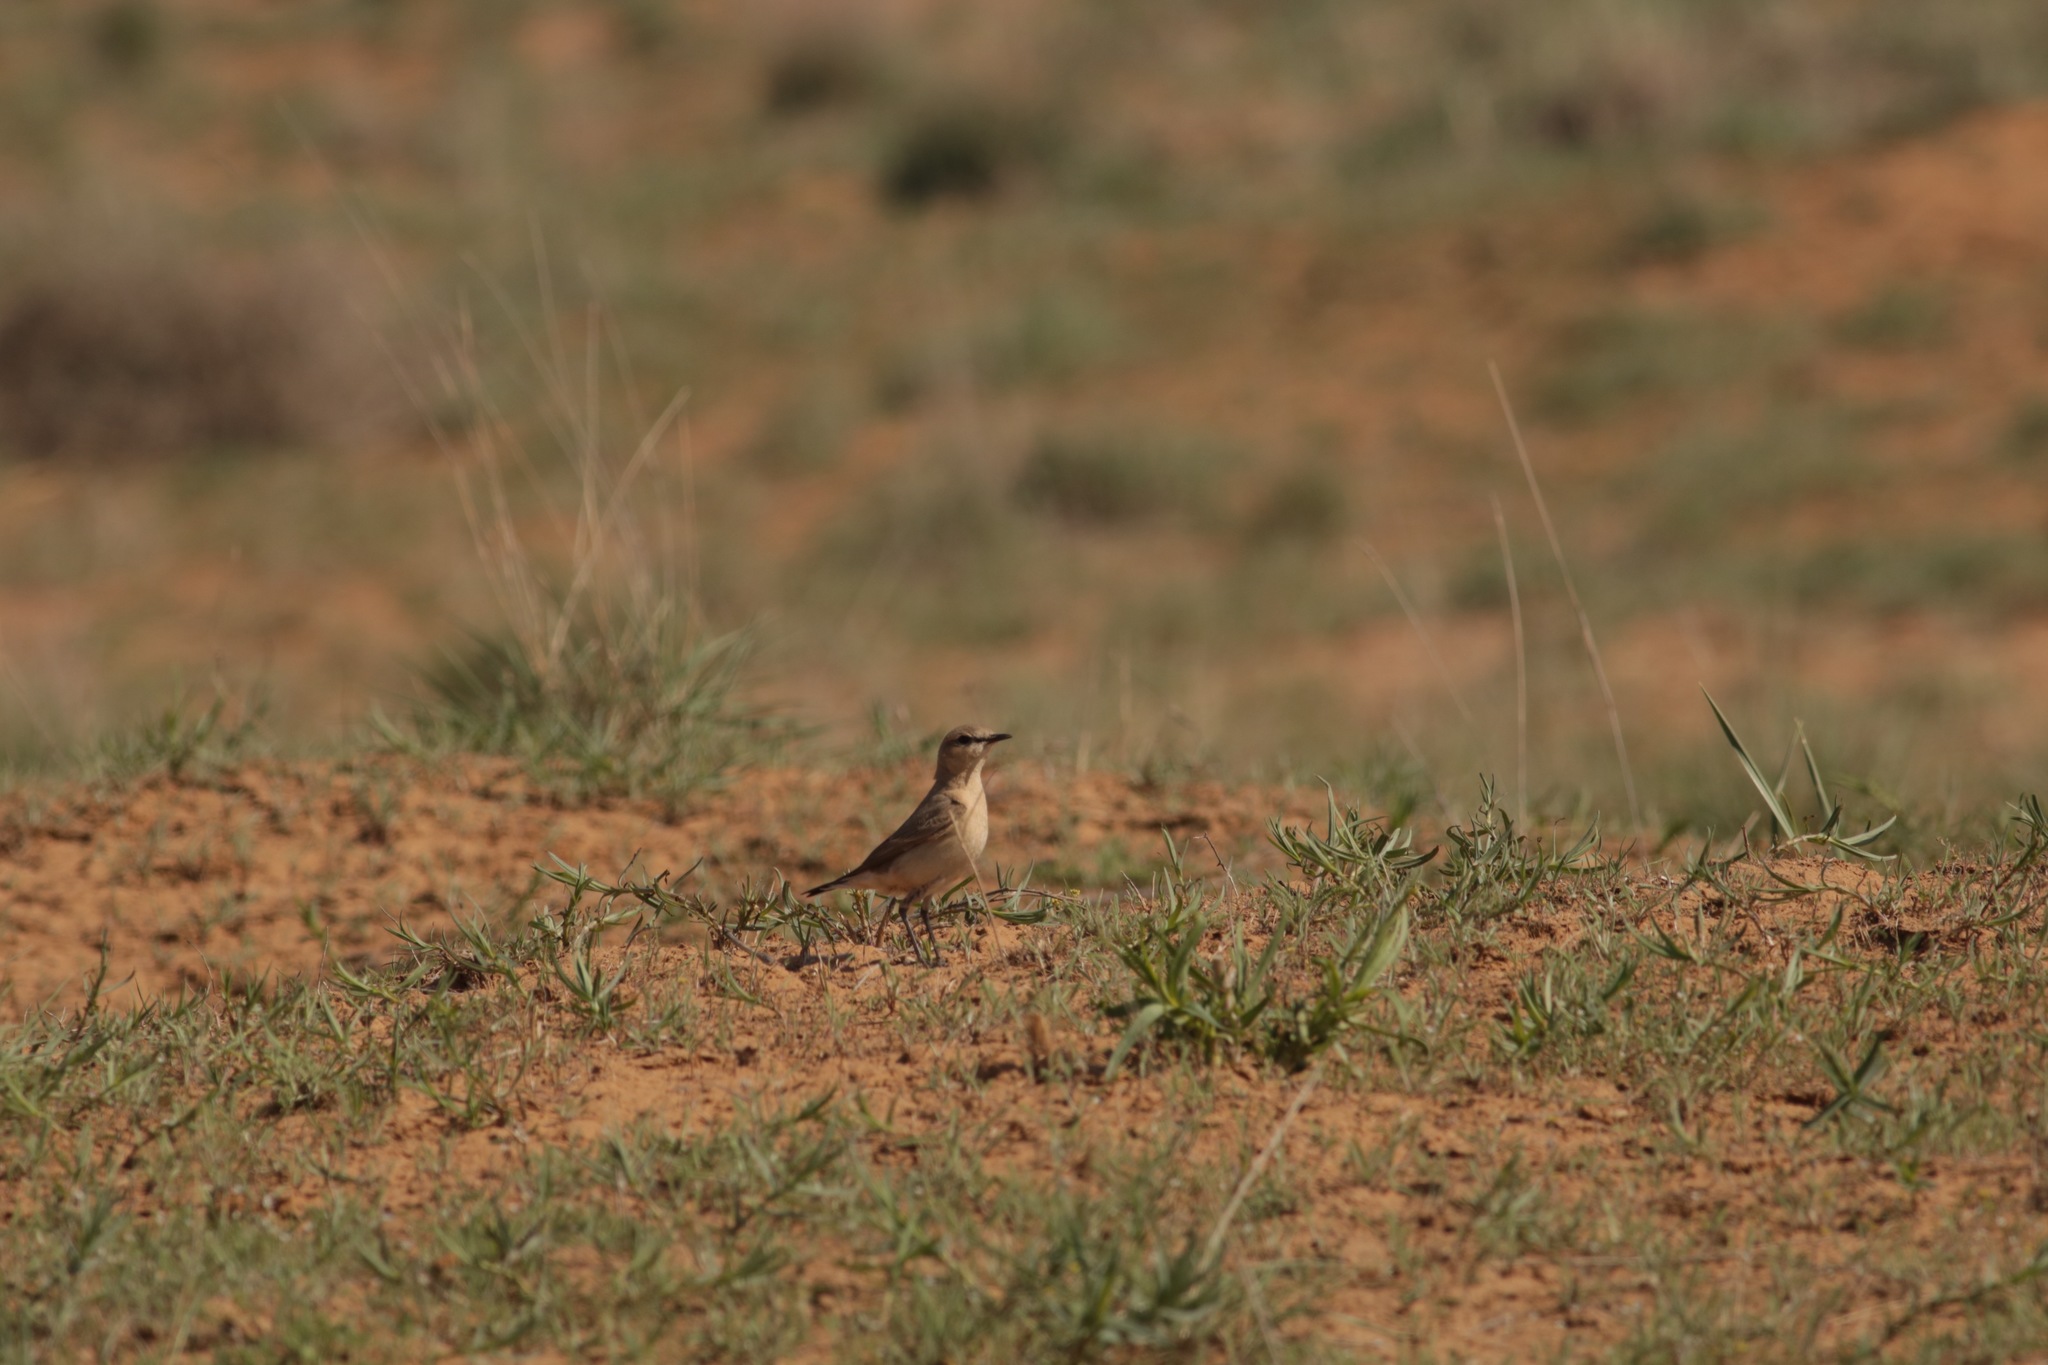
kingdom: Animalia
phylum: Chordata
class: Aves
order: Passeriformes
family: Muscicapidae
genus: Oenanthe
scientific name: Oenanthe isabellina
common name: Isabelline wheatear
